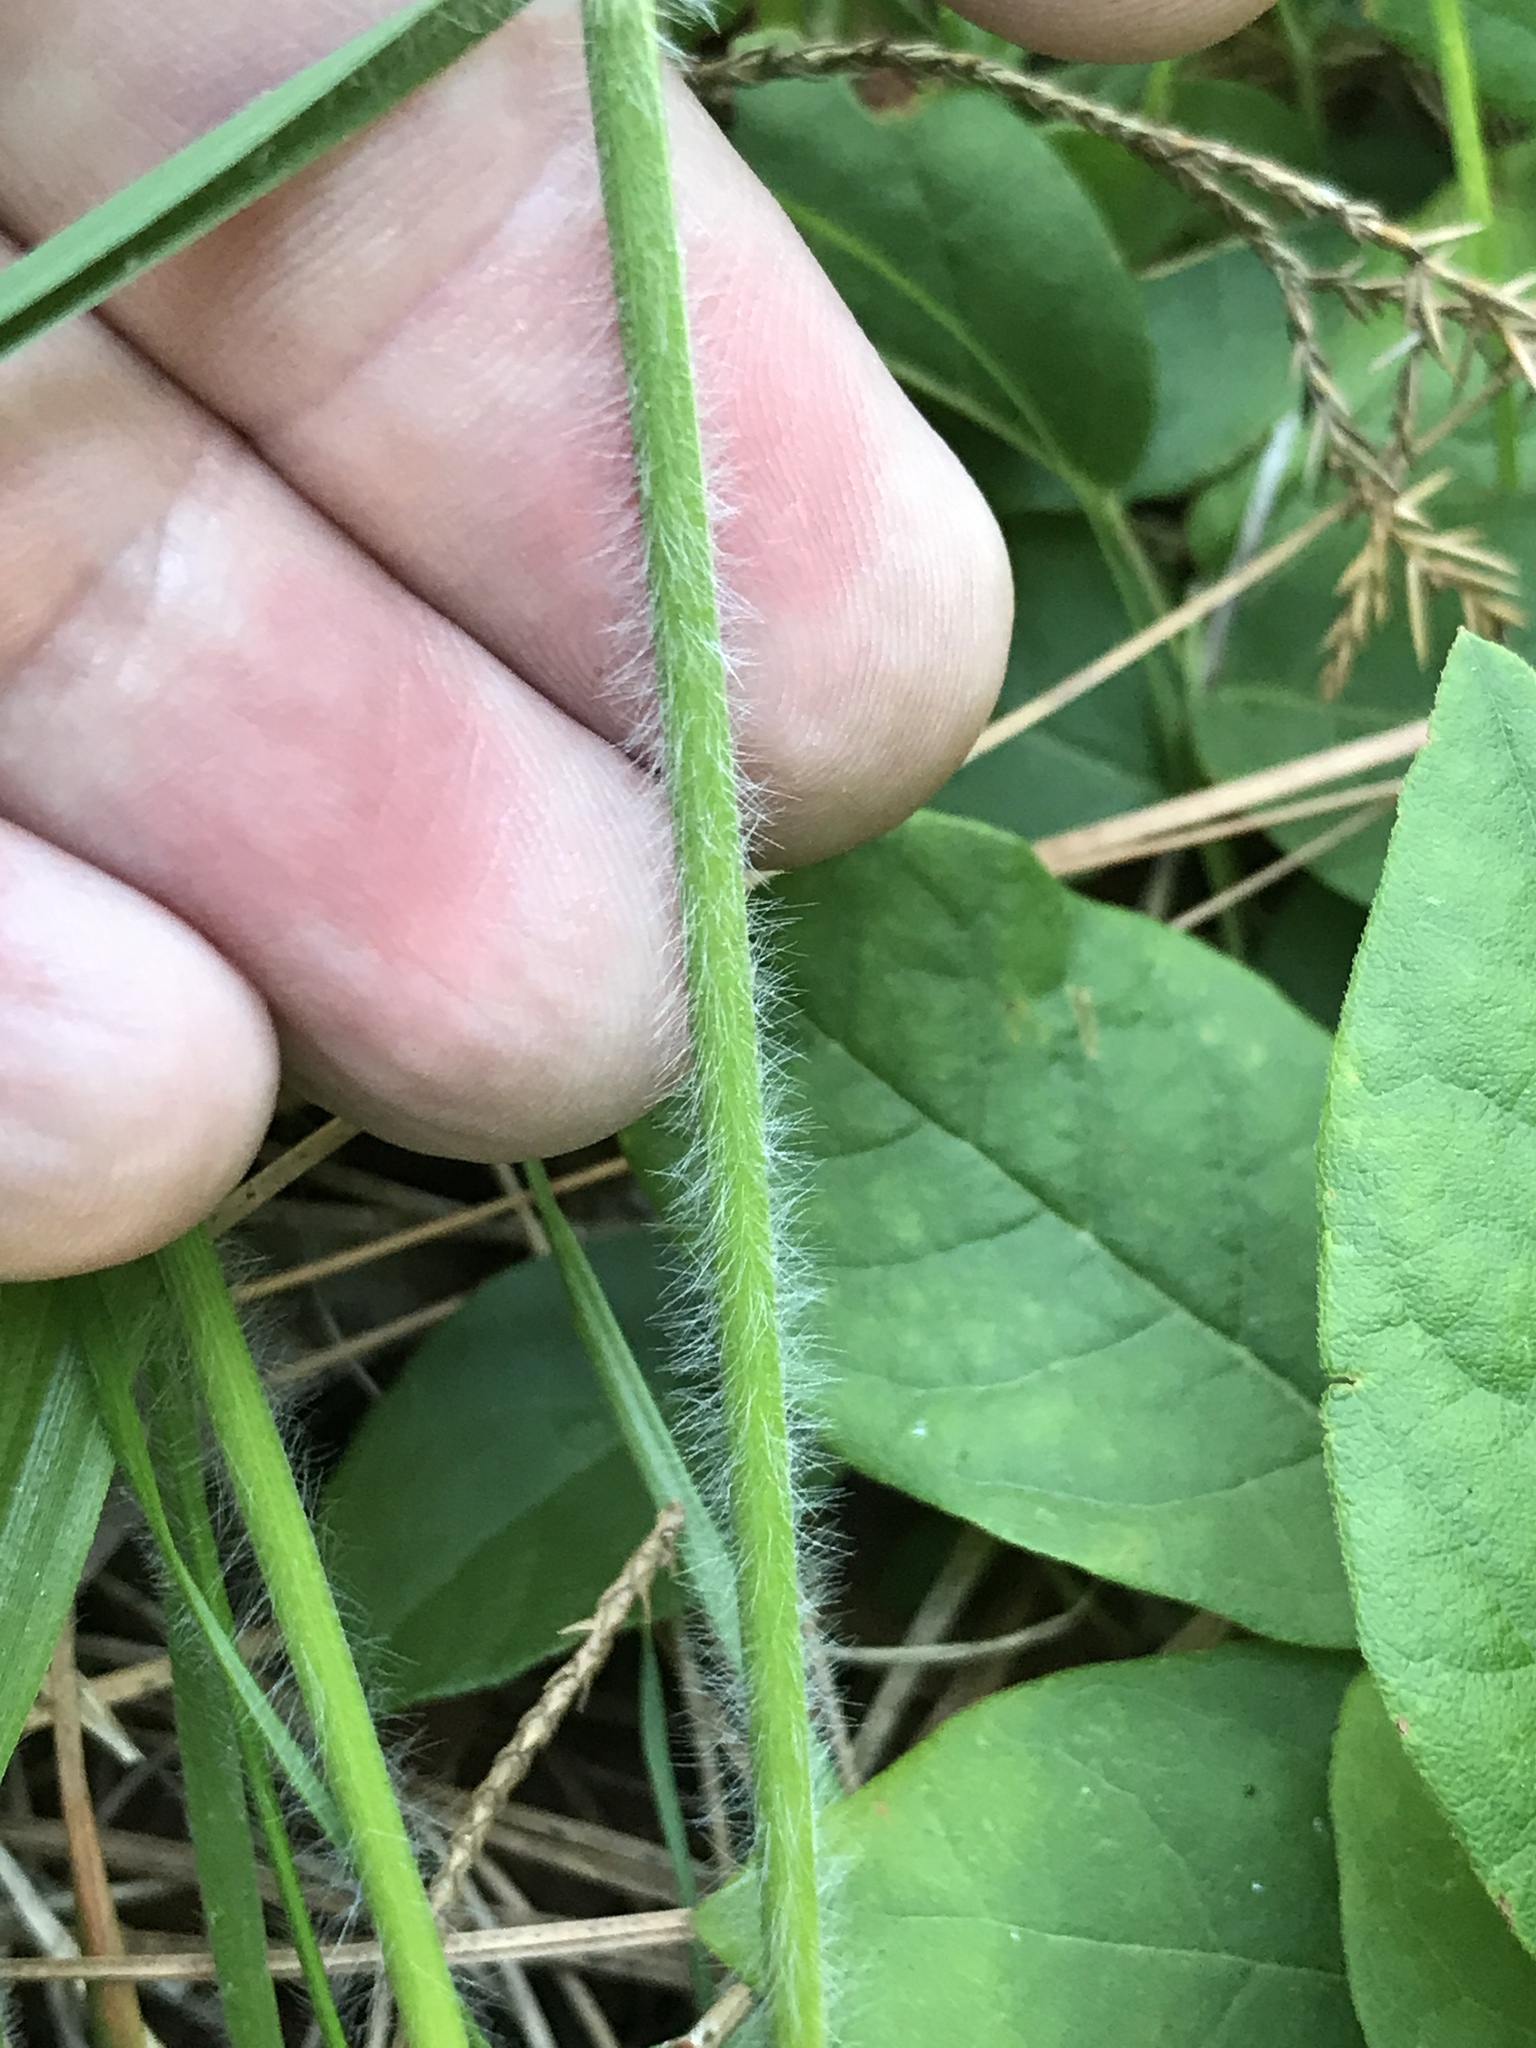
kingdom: Plantae
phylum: Tracheophyta
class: Liliopsida
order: Poales
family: Poaceae
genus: Danthonia
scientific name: Danthonia sericea
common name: Downy danthonia
